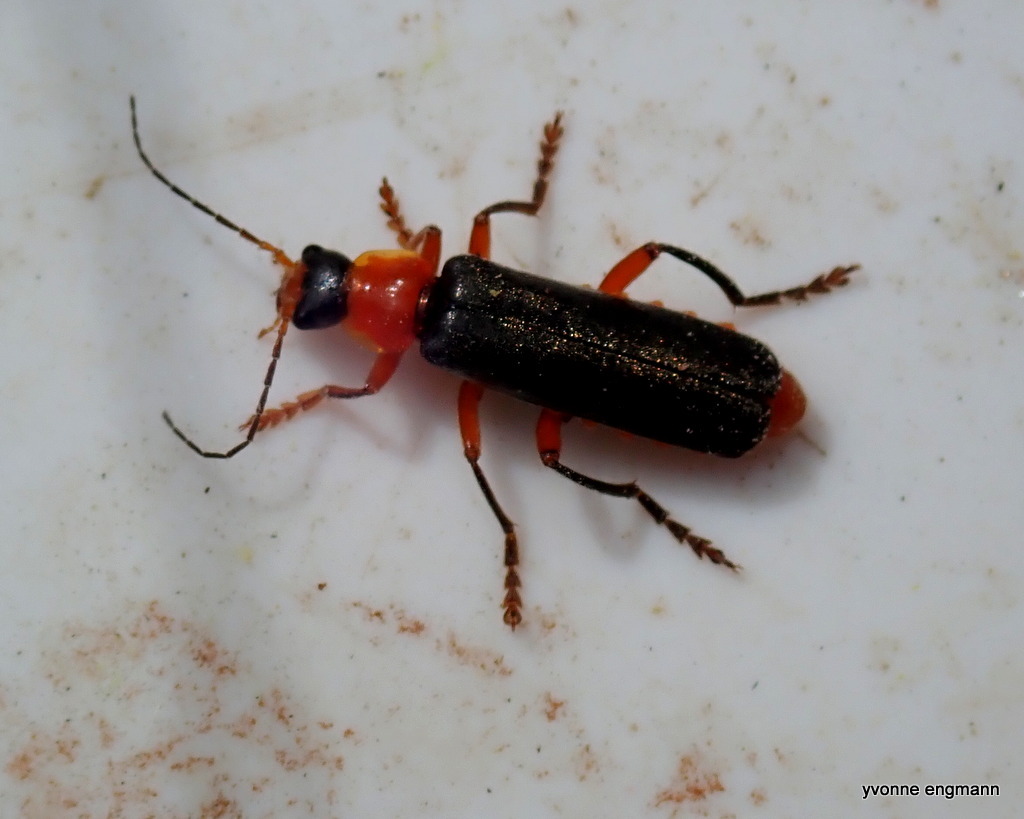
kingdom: Animalia
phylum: Arthropoda
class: Insecta
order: Coleoptera
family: Cantharidae
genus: Cantharis
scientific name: Cantharis pellucida
